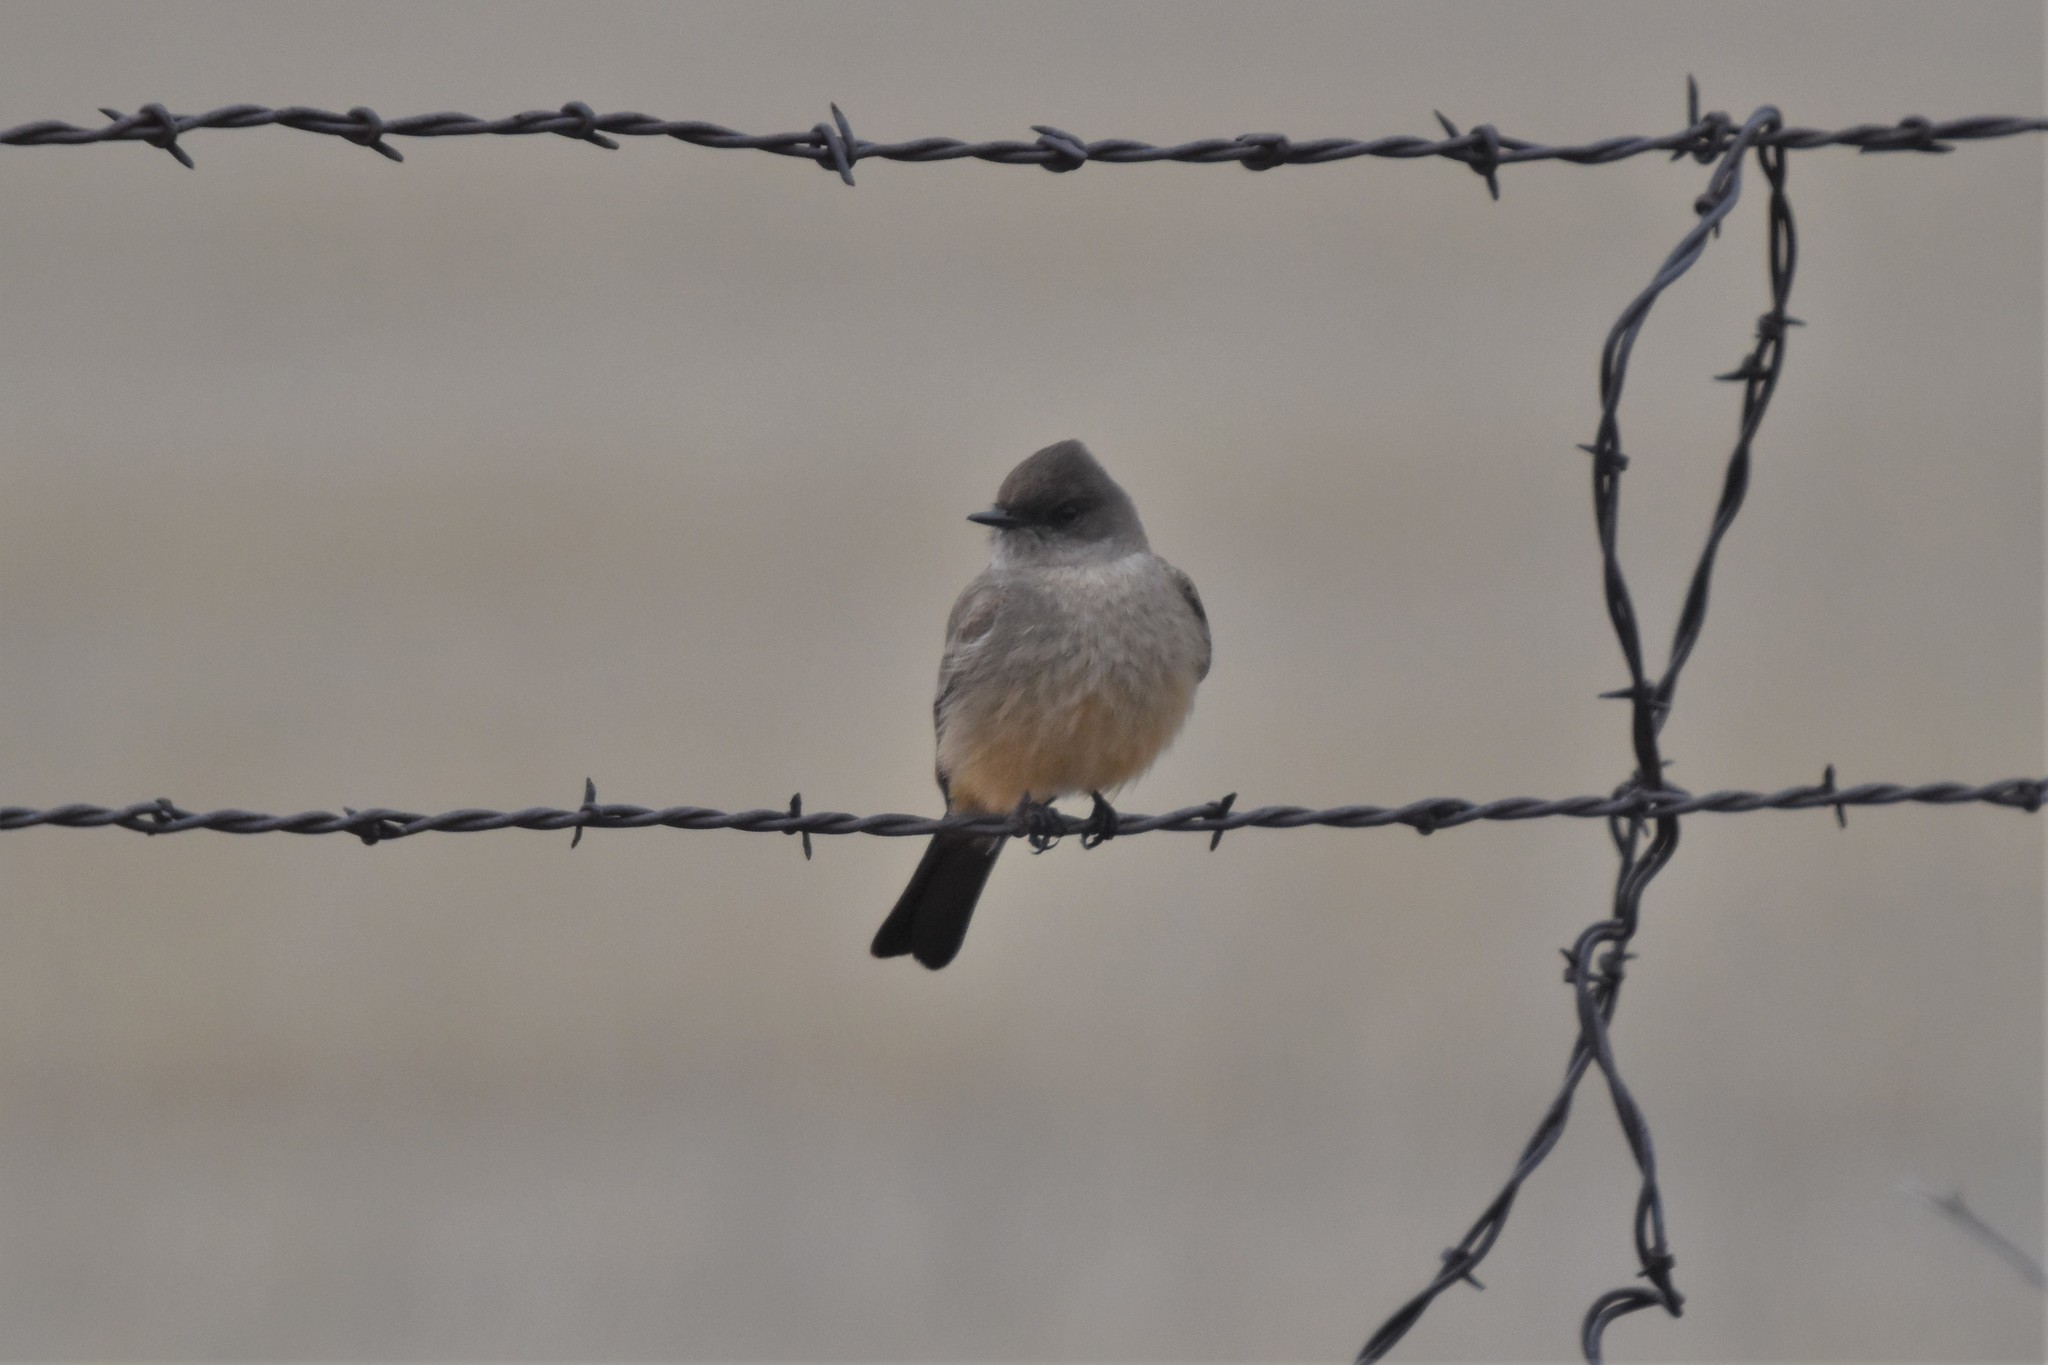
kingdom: Animalia
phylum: Chordata
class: Aves
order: Passeriformes
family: Tyrannidae
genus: Sayornis
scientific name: Sayornis saya
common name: Say's phoebe
